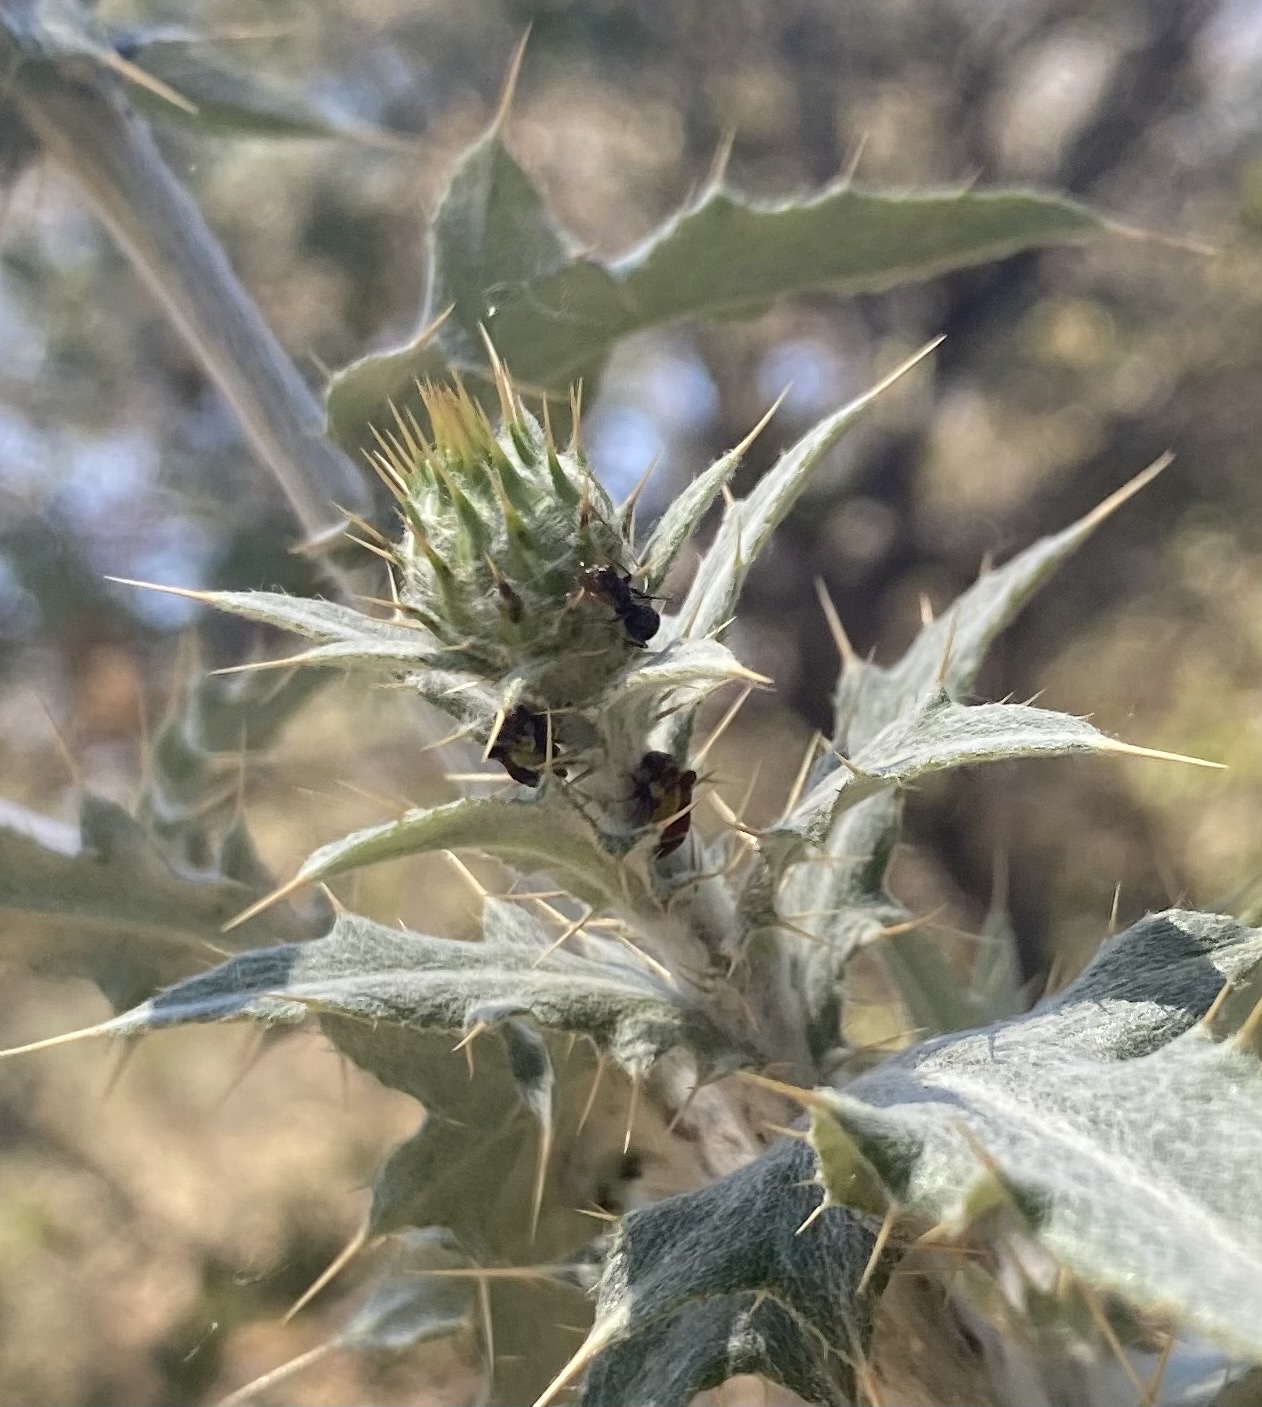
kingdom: Animalia
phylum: Arthropoda
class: Insecta
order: Hemiptera
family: Membracidae
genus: Publilia
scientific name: Publilia porrecta
